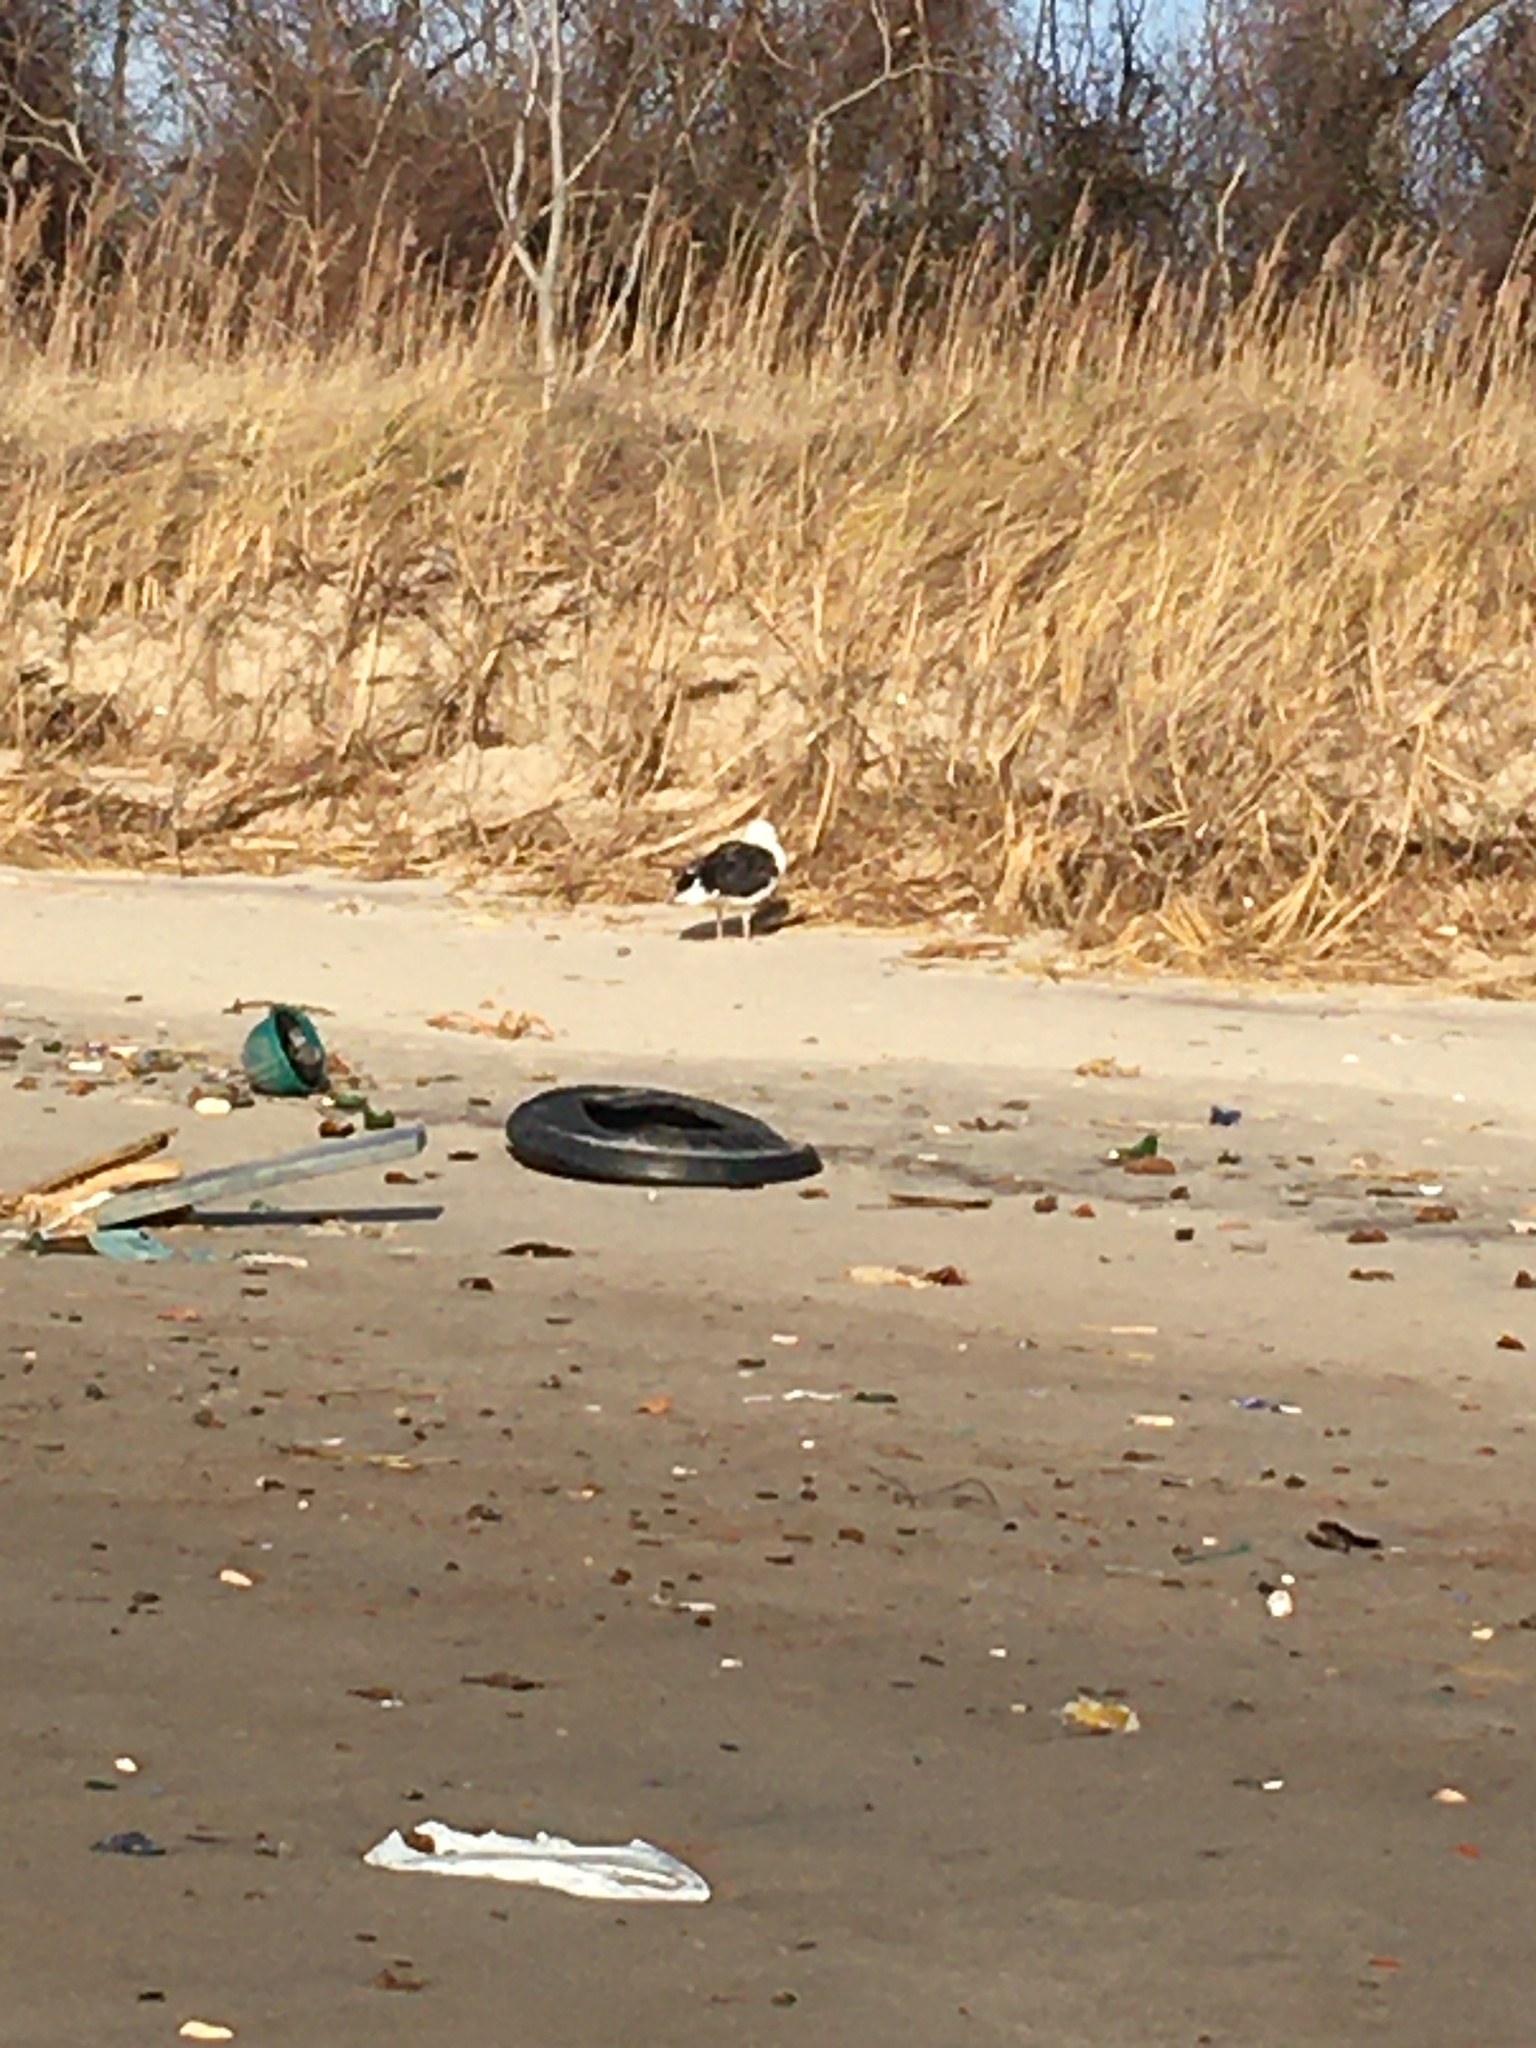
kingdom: Animalia
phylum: Chordata
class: Aves
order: Charadriiformes
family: Laridae
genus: Larus
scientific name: Larus marinus
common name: Great black-backed gull
